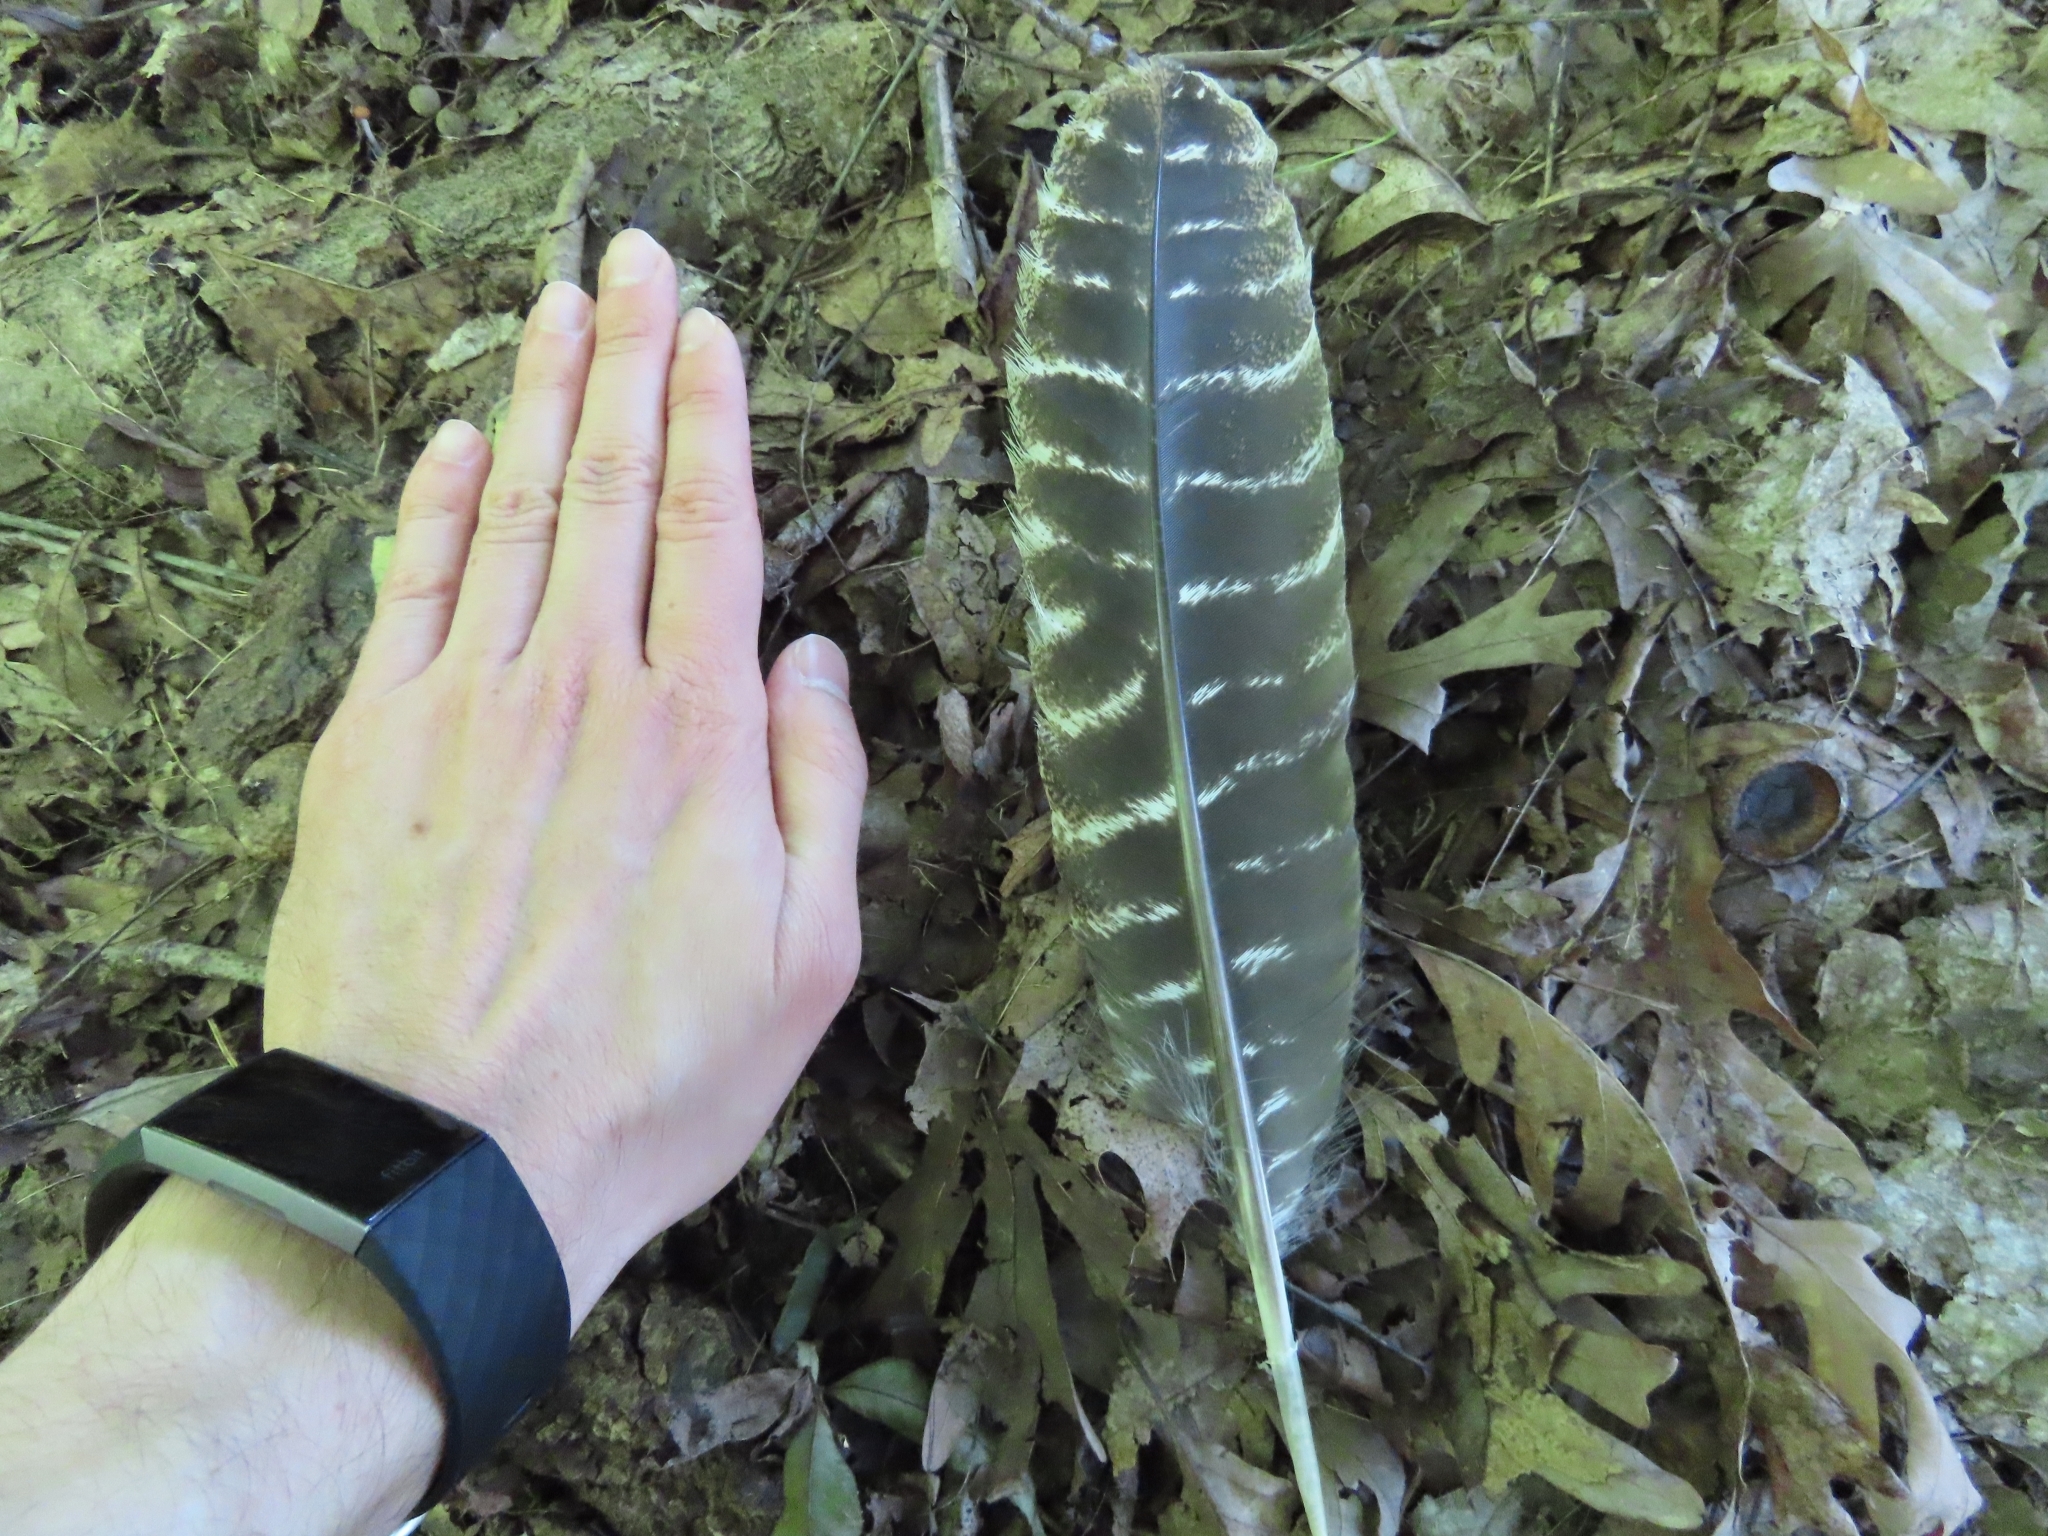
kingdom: Animalia
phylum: Chordata
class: Aves
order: Galliformes
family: Phasianidae
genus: Meleagris
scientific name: Meleagris gallopavo
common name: Wild turkey
